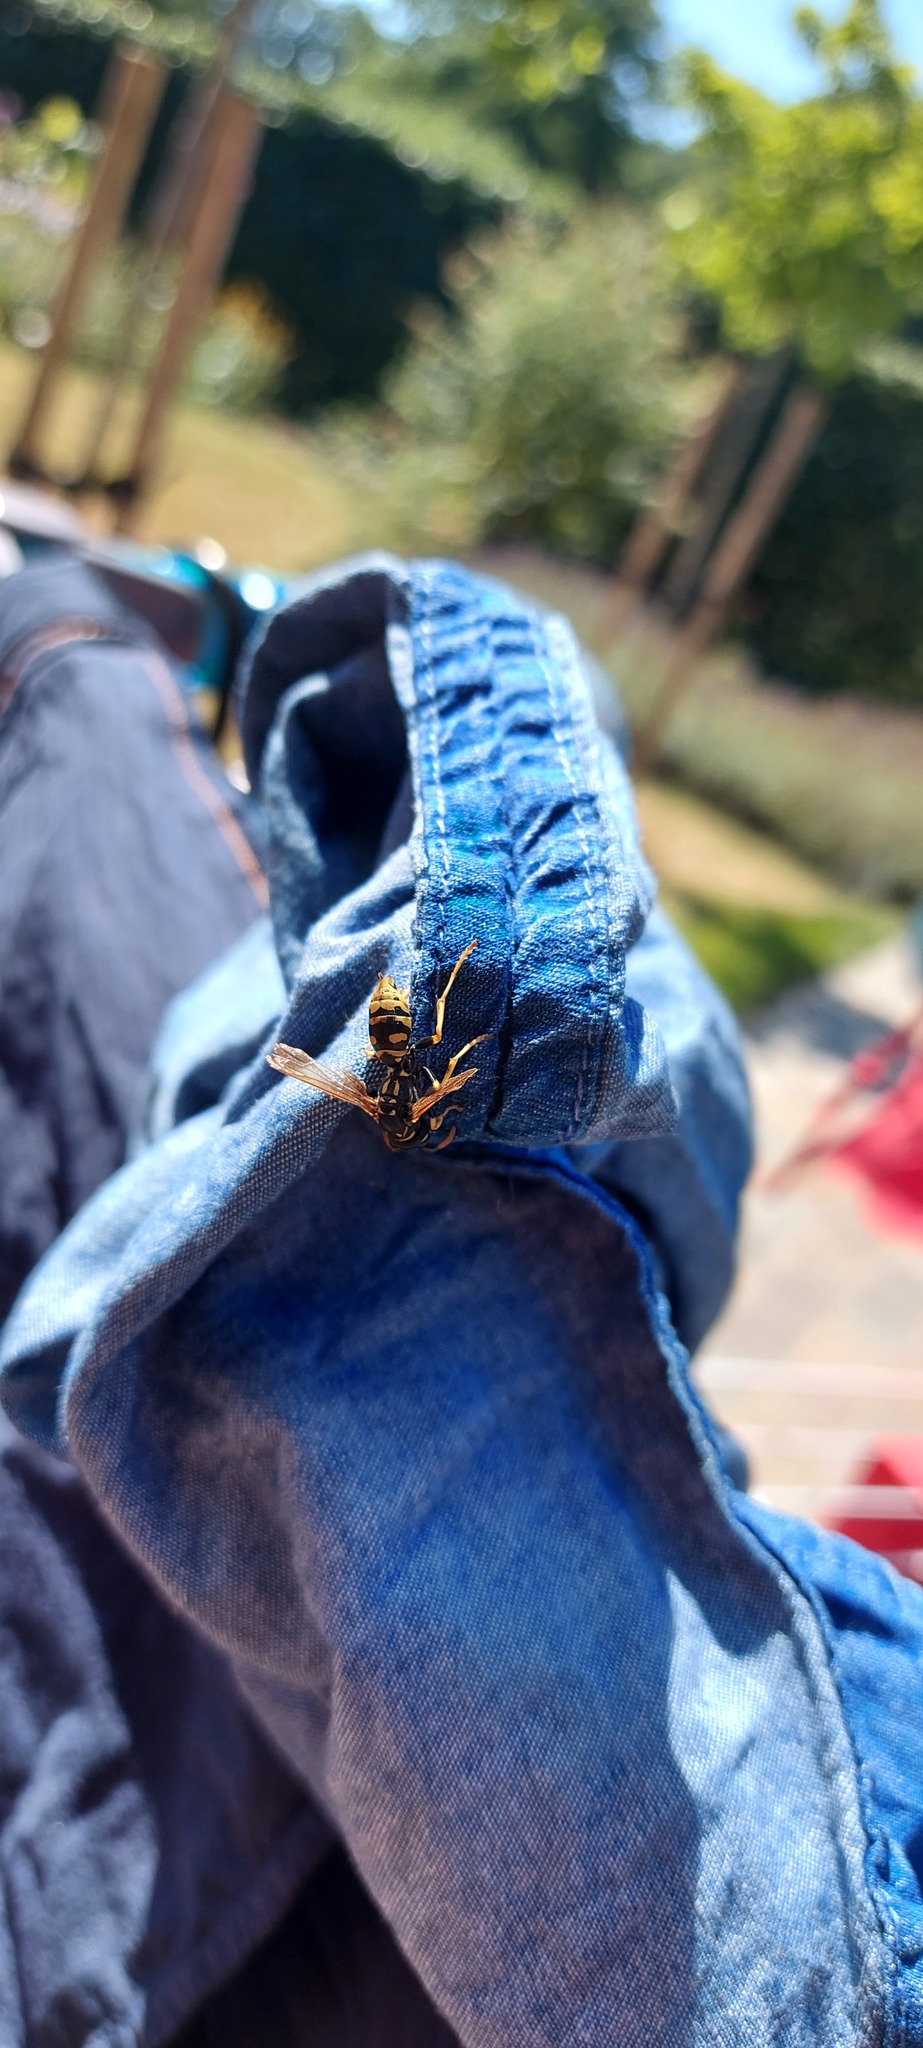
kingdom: Animalia
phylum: Arthropoda
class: Insecta
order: Hymenoptera
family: Eumenidae
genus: Polistes
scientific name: Polistes dominula
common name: Paper wasp
